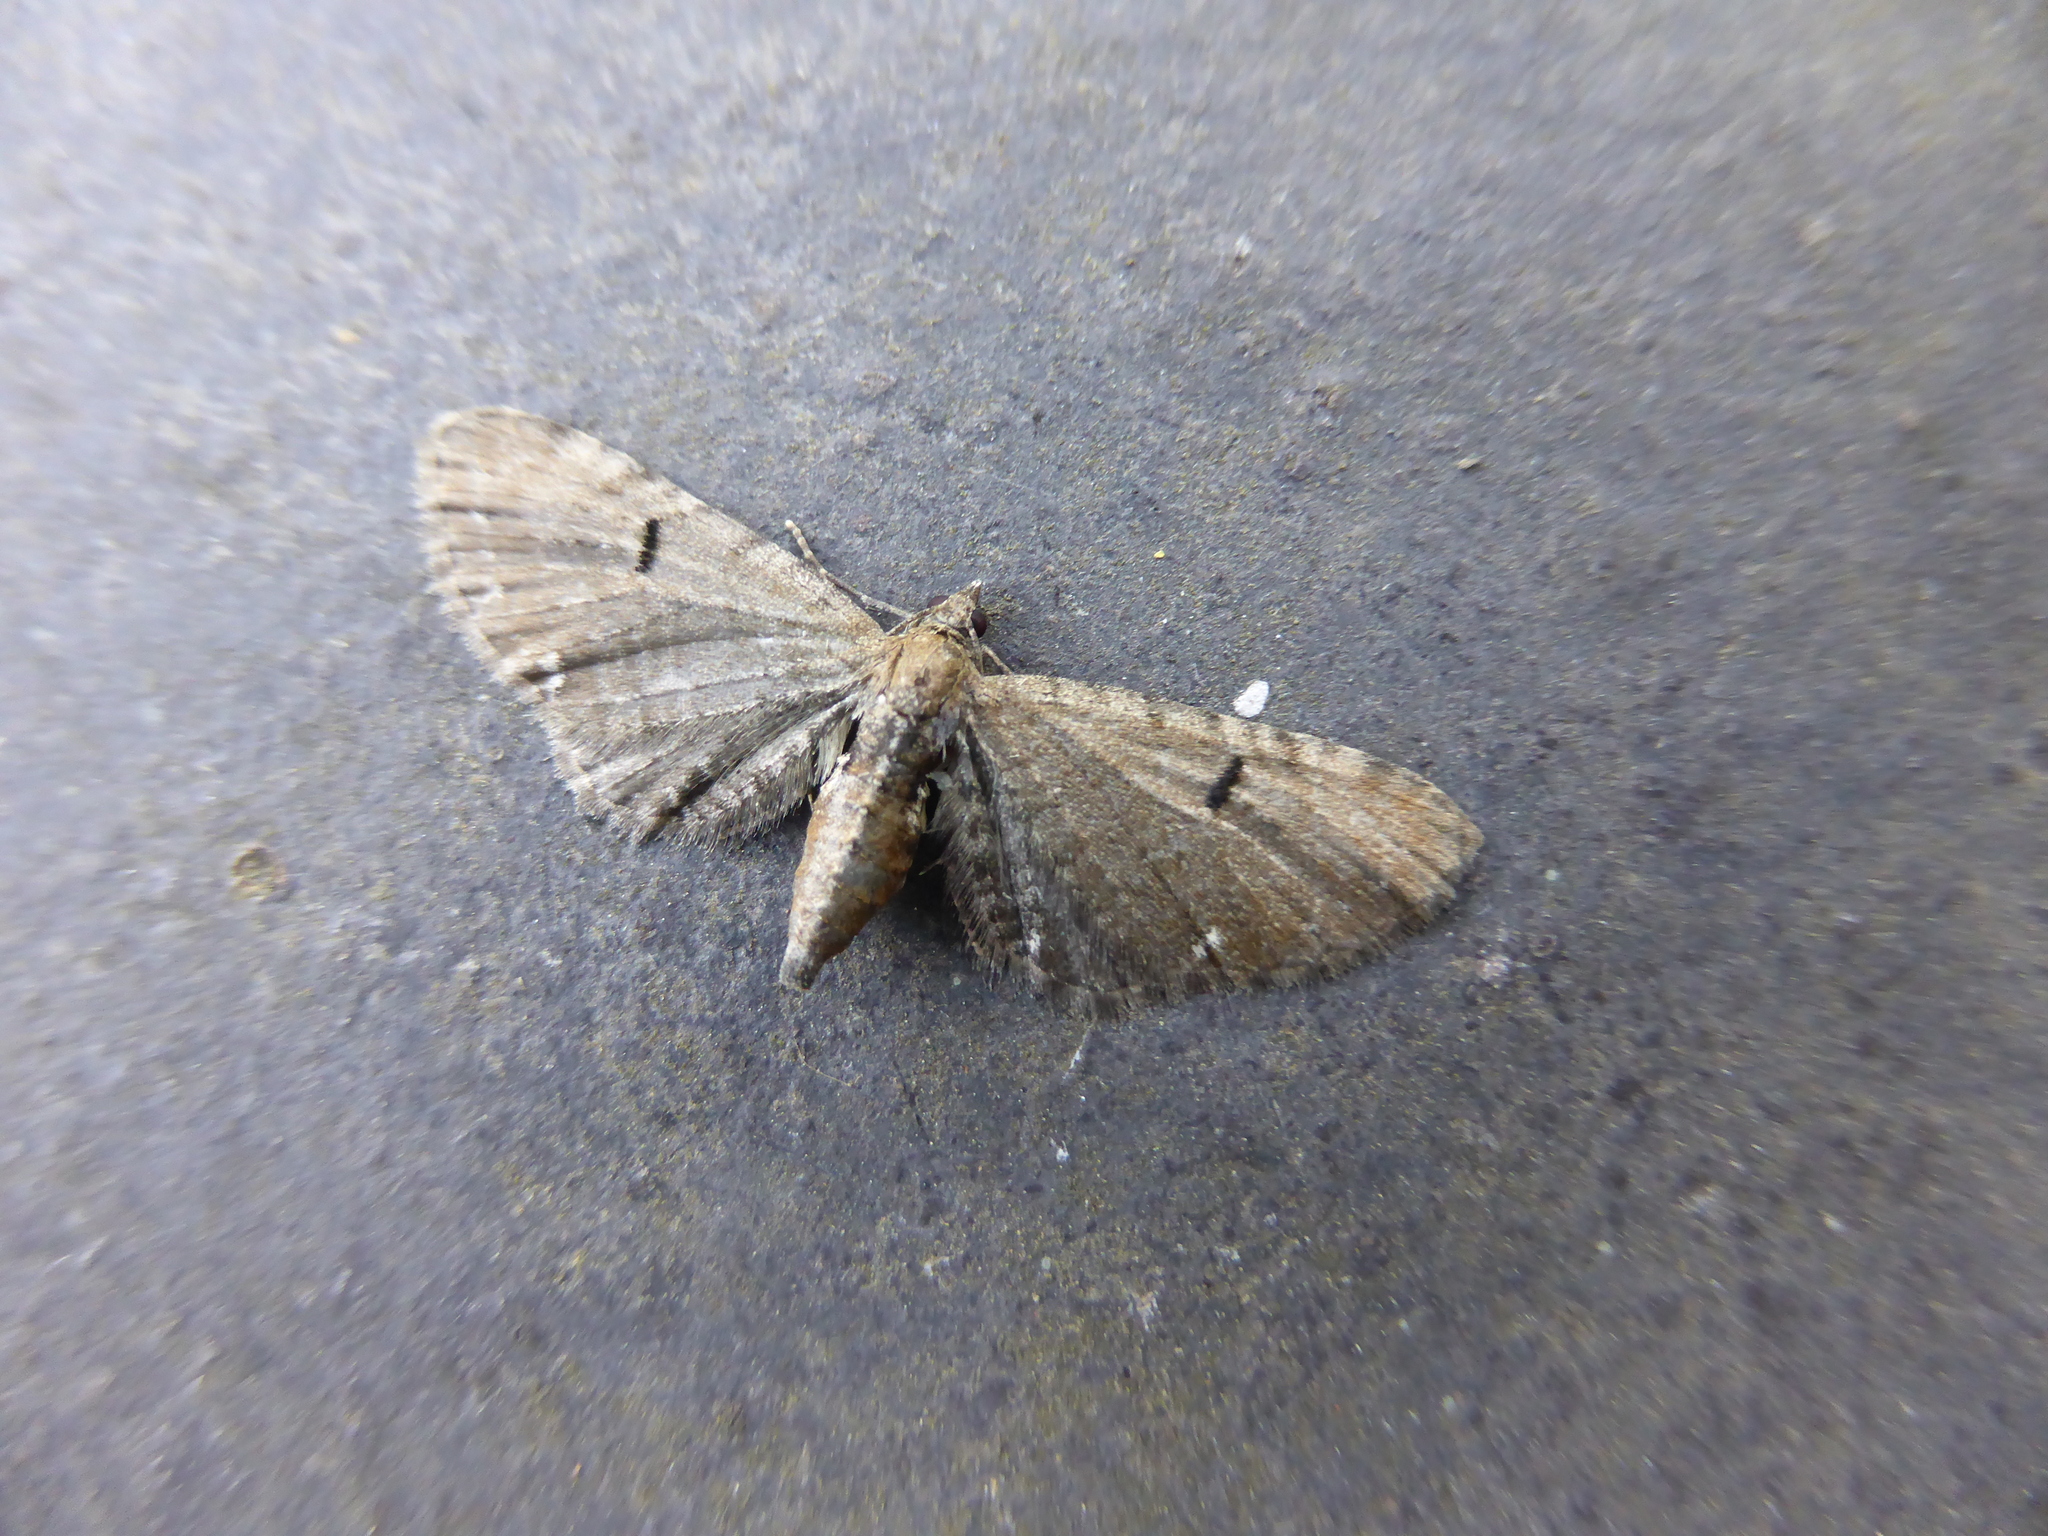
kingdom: Animalia
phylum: Arthropoda
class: Insecta
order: Lepidoptera
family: Geometridae
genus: Eupithecia
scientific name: Eupithecia assimilata
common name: Currant pug
